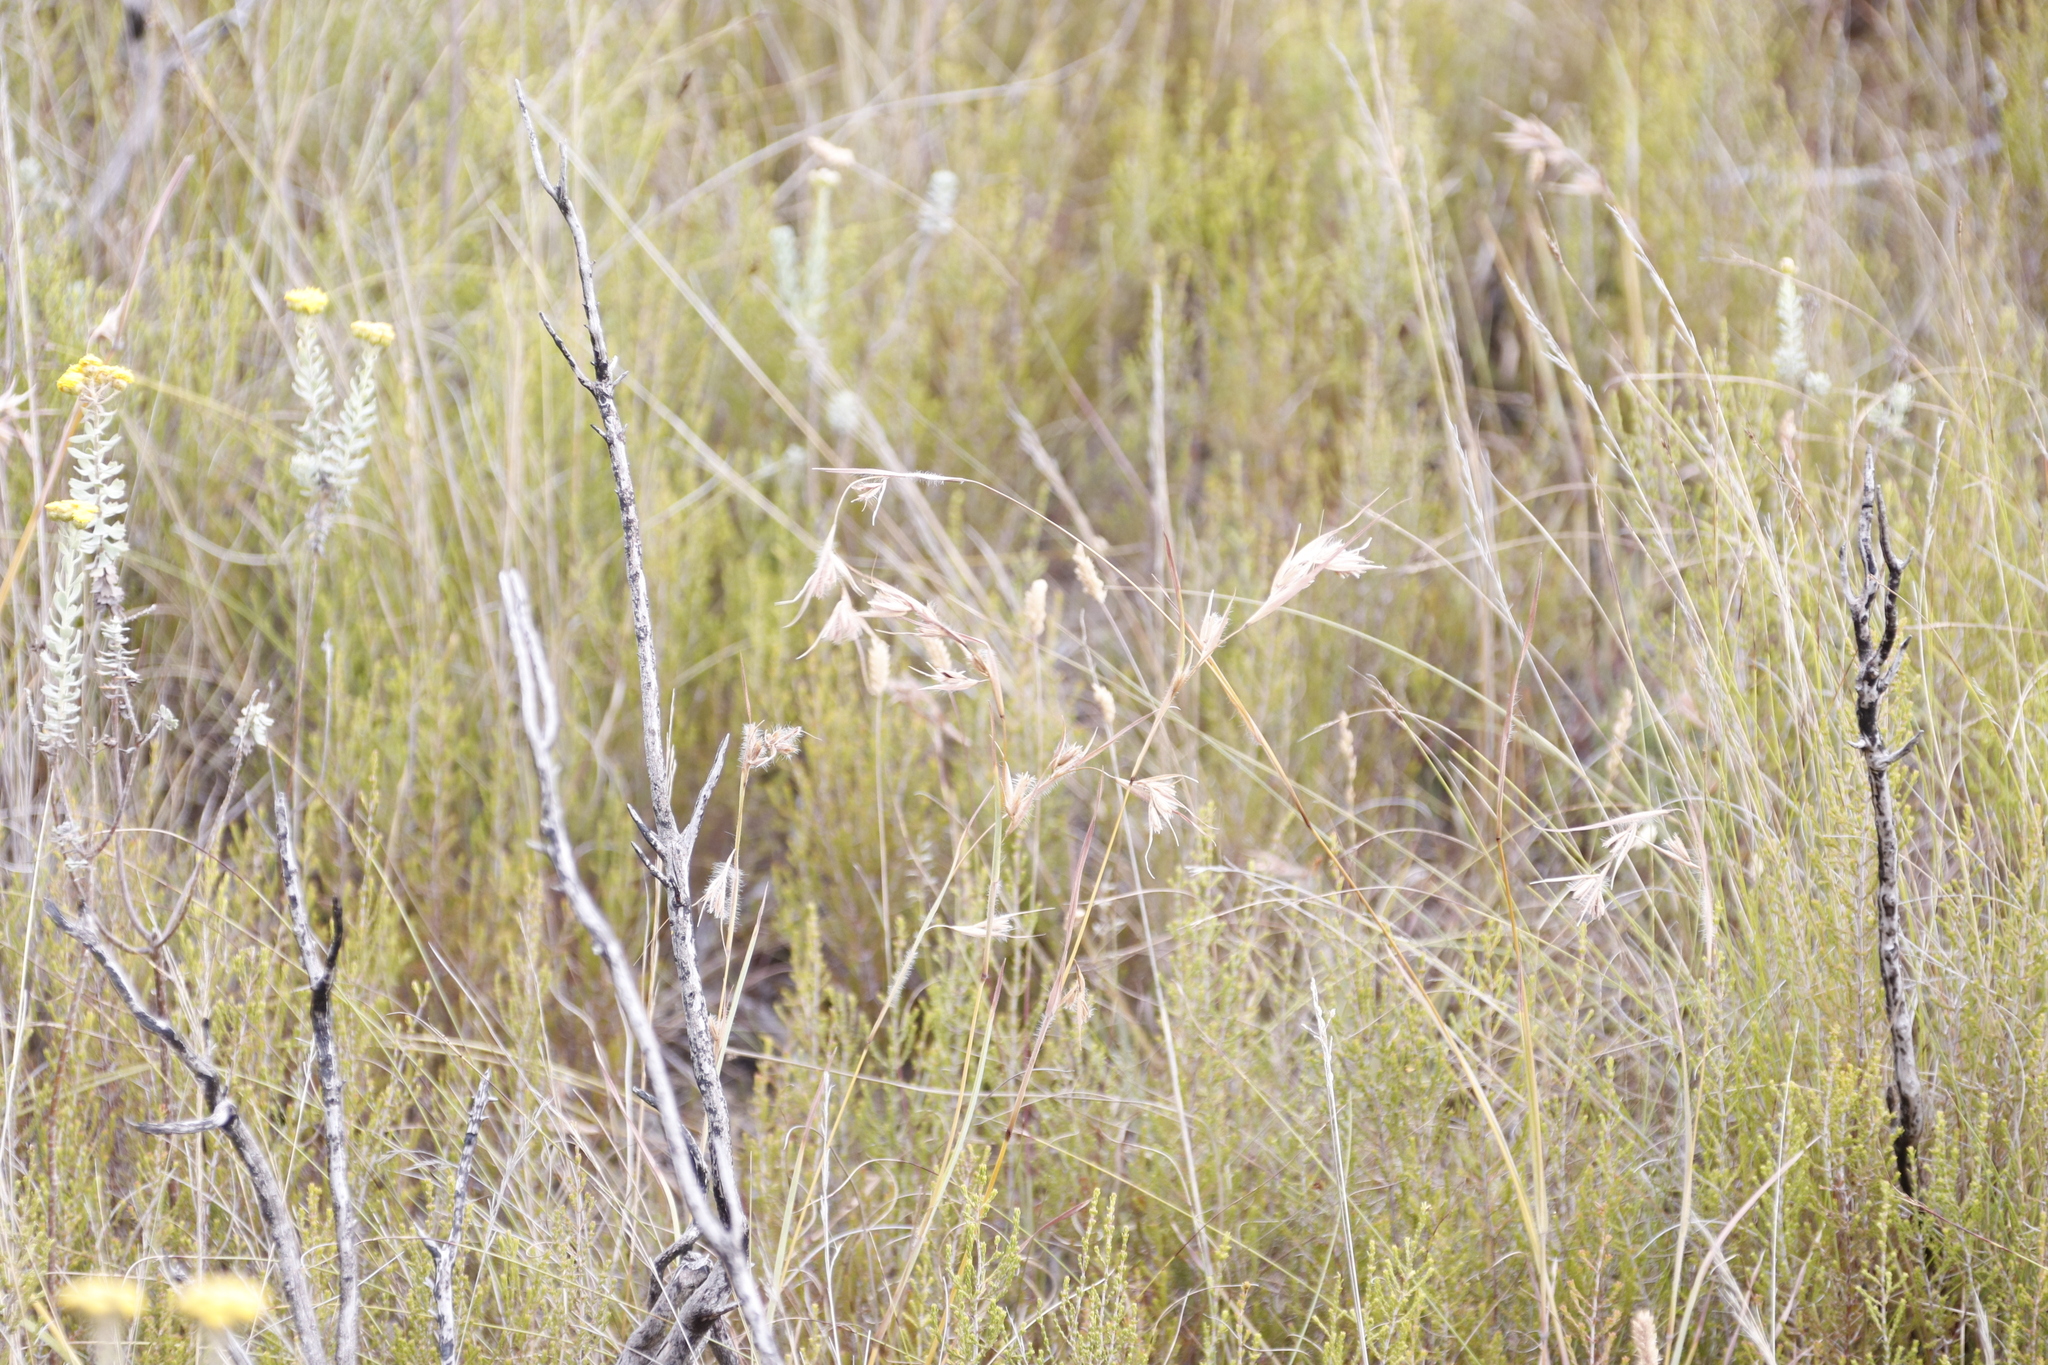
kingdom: Plantae
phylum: Tracheophyta
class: Liliopsida
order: Poales
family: Poaceae
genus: Themeda
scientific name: Themeda triandra
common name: Kangaroo grass
